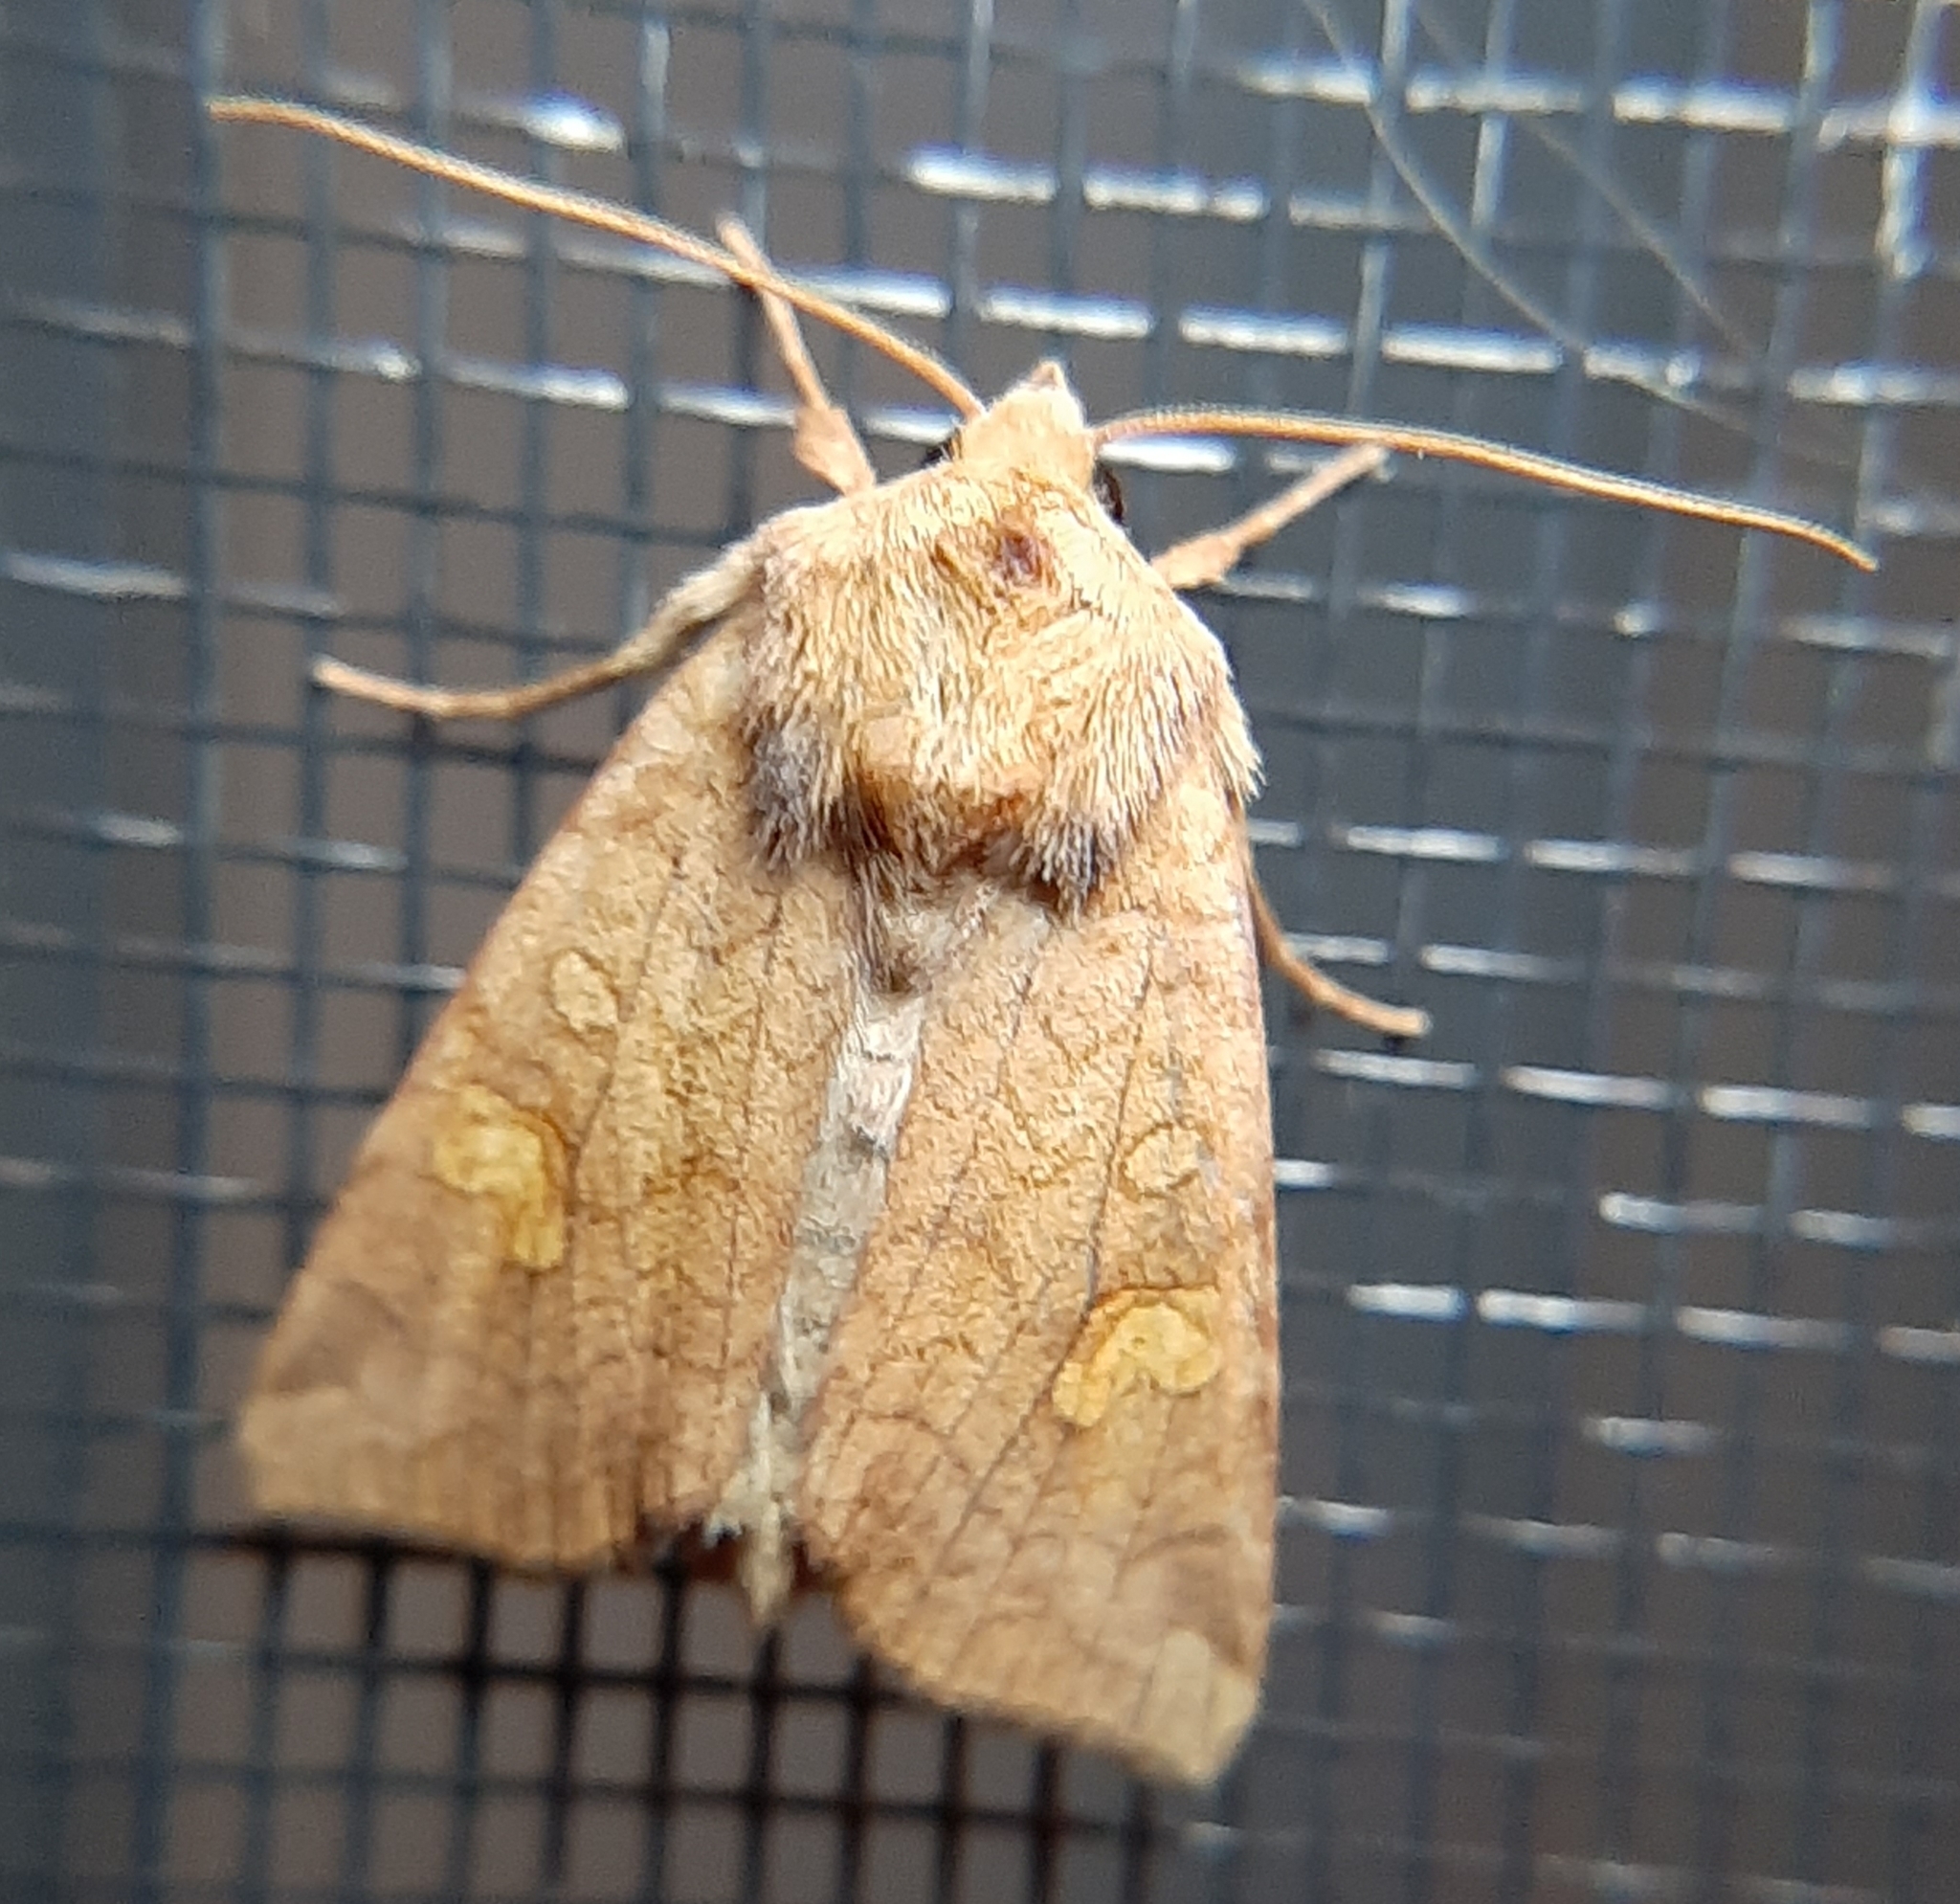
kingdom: Animalia
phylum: Arthropoda
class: Insecta
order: Lepidoptera
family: Noctuidae
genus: Amphipoea
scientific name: Amphipoea americana
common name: American ear moth
